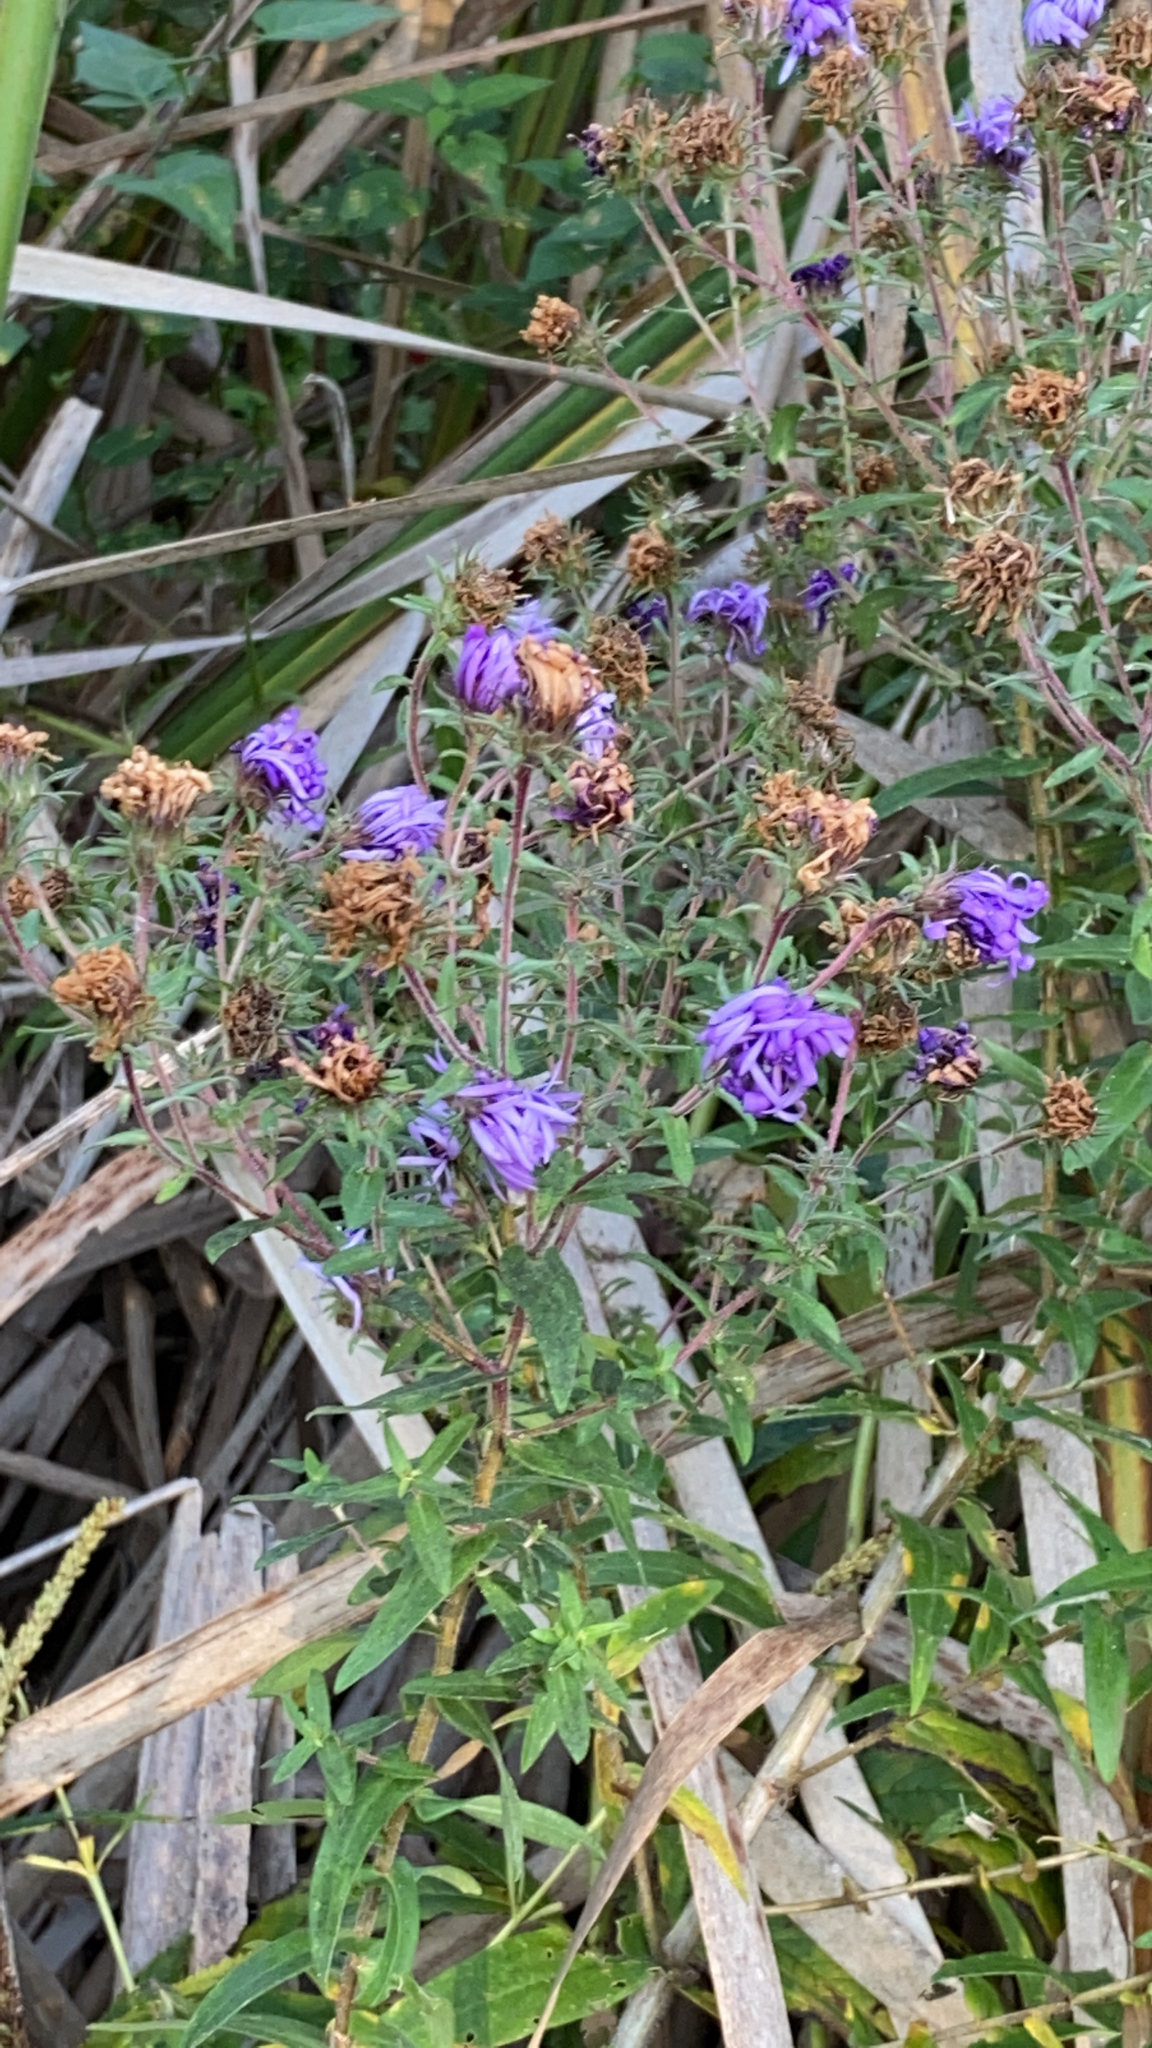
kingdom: Plantae
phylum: Tracheophyta
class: Magnoliopsida
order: Asterales
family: Asteraceae
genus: Symphyotrichum
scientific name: Symphyotrichum novae-angliae
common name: Michaelmas daisy
